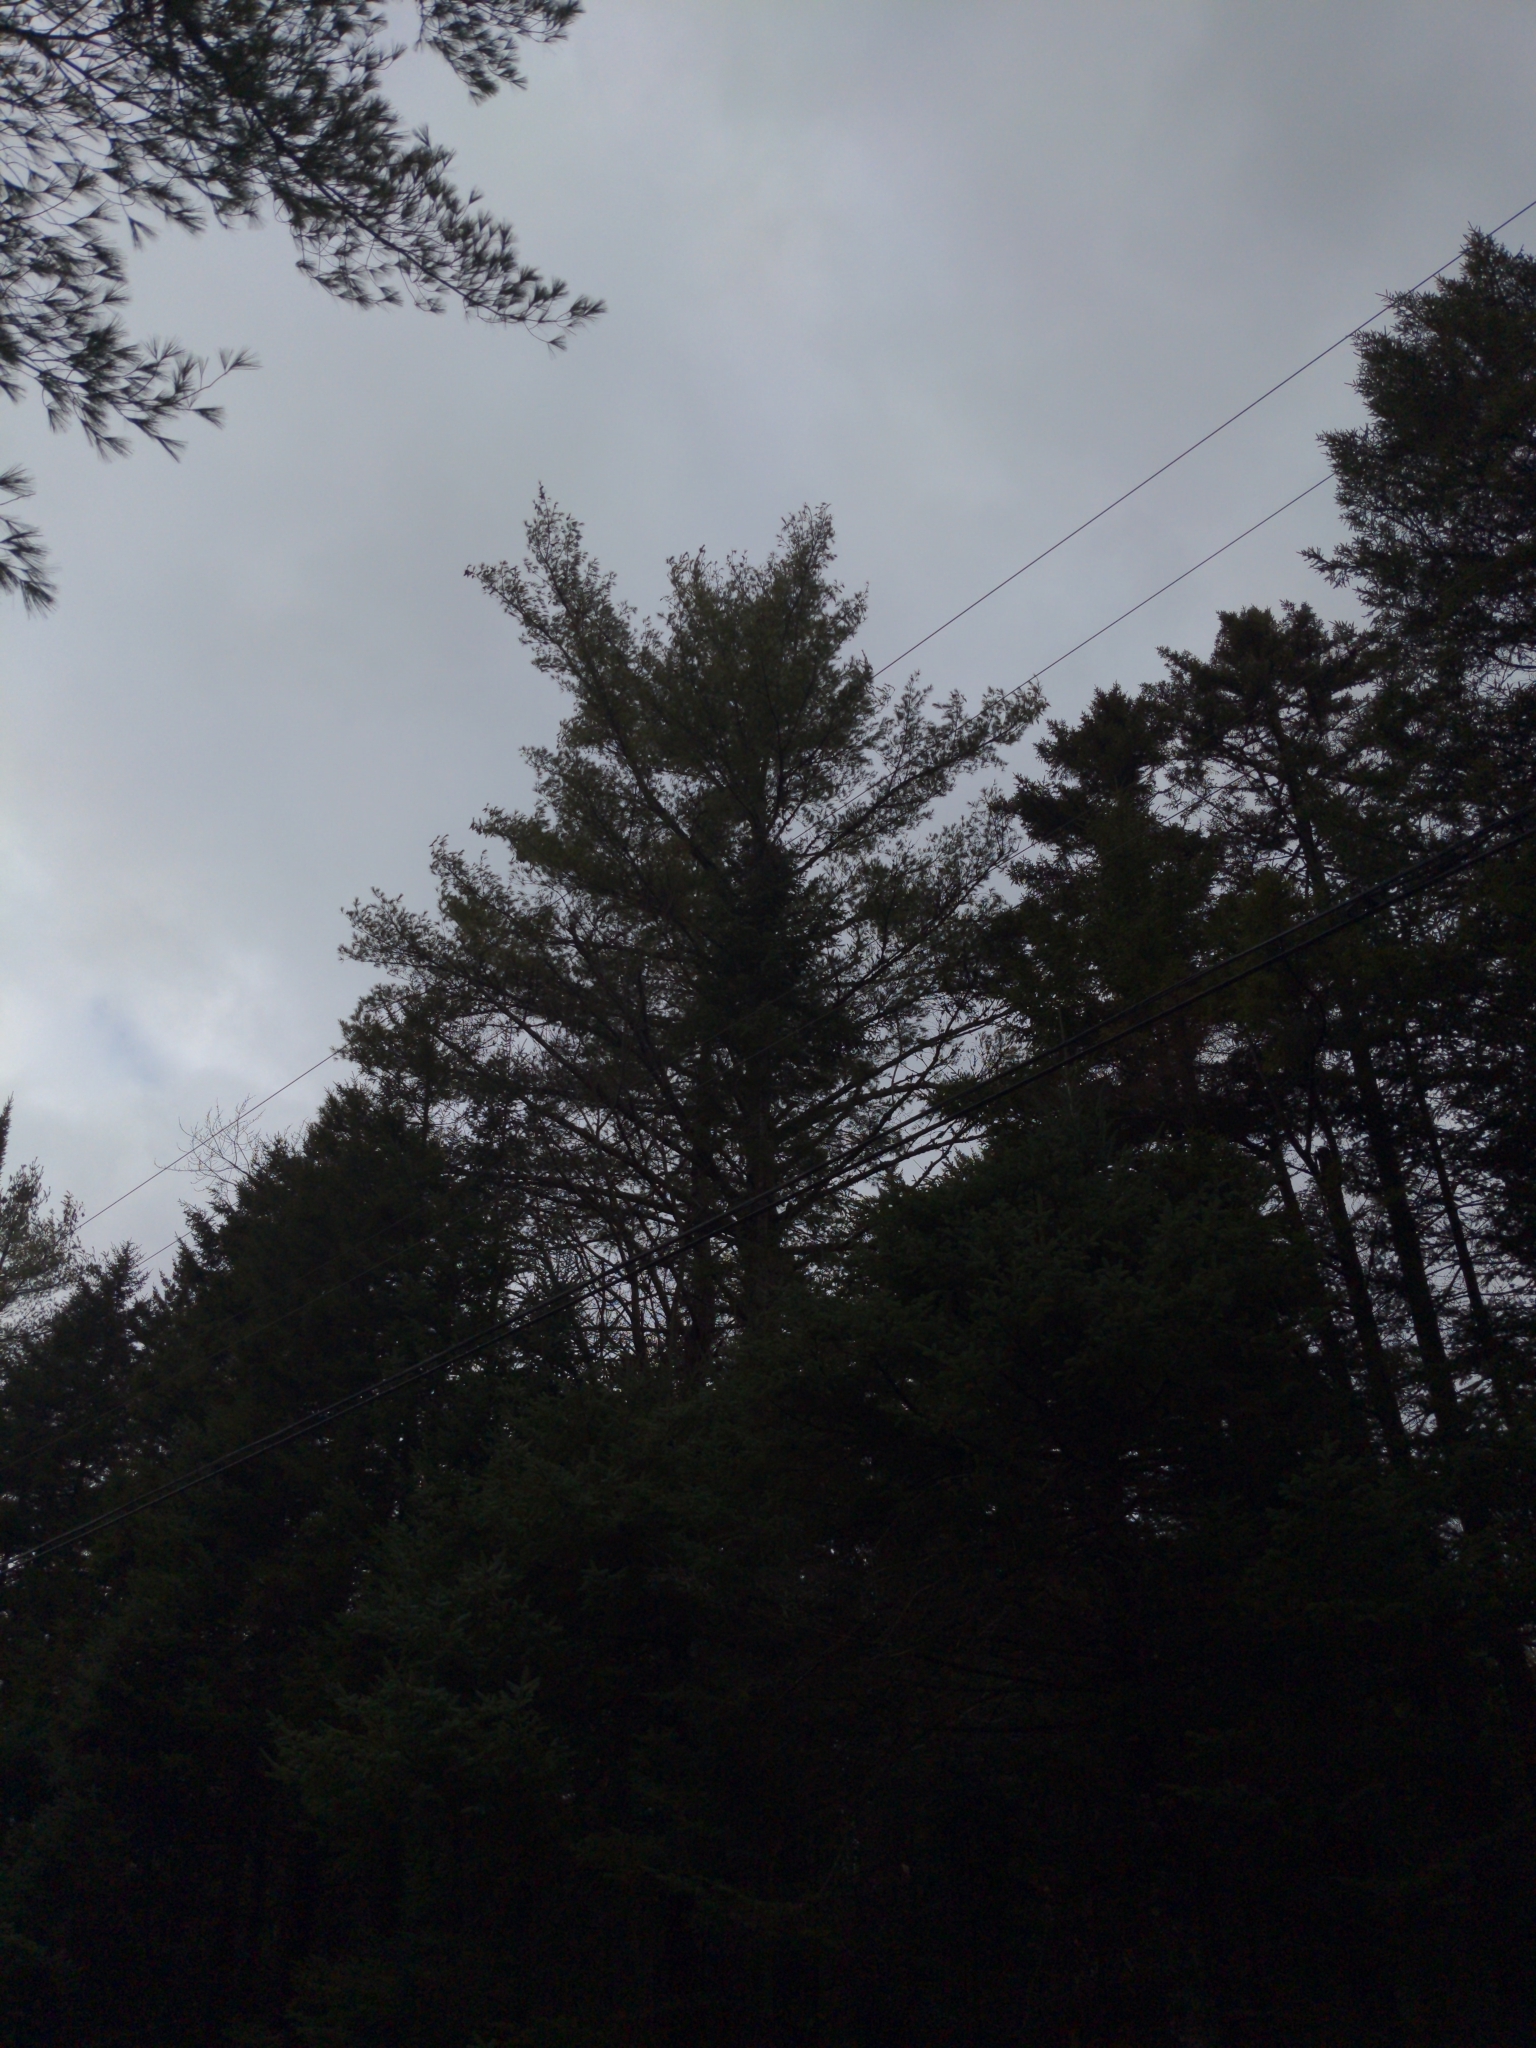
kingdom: Plantae
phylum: Tracheophyta
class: Pinopsida
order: Pinales
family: Pinaceae
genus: Pinus
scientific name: Pinus strobus
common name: Weymouth pine
